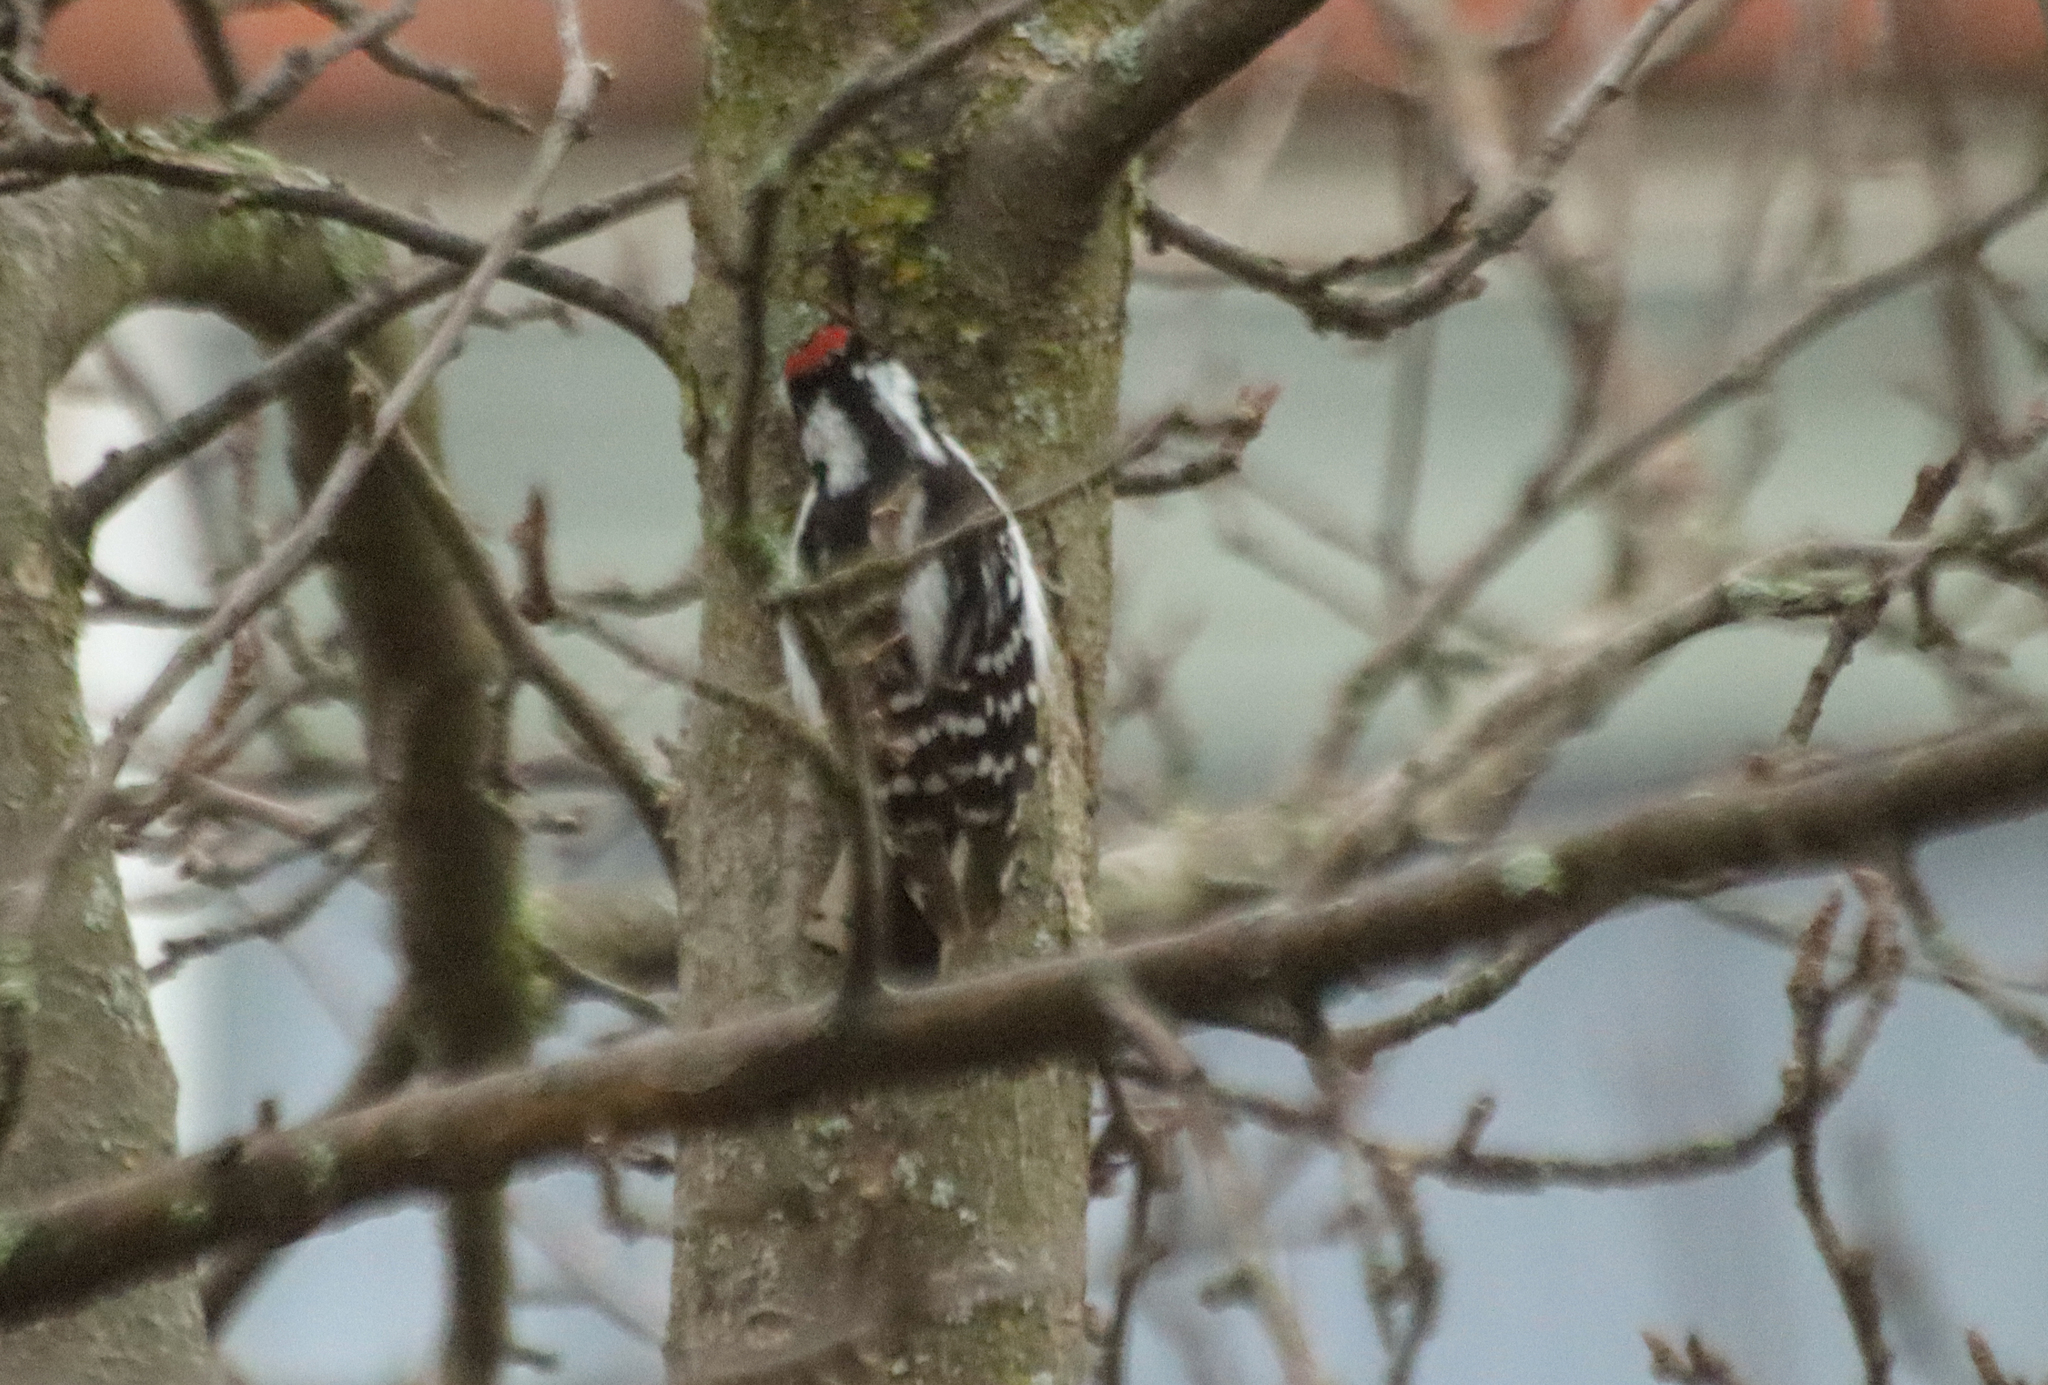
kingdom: Animalia
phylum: Chordata
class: Aves
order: Piciformes
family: Picidae
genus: Dryobates
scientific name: Dryobates pubescens
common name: Downy woodpecker
